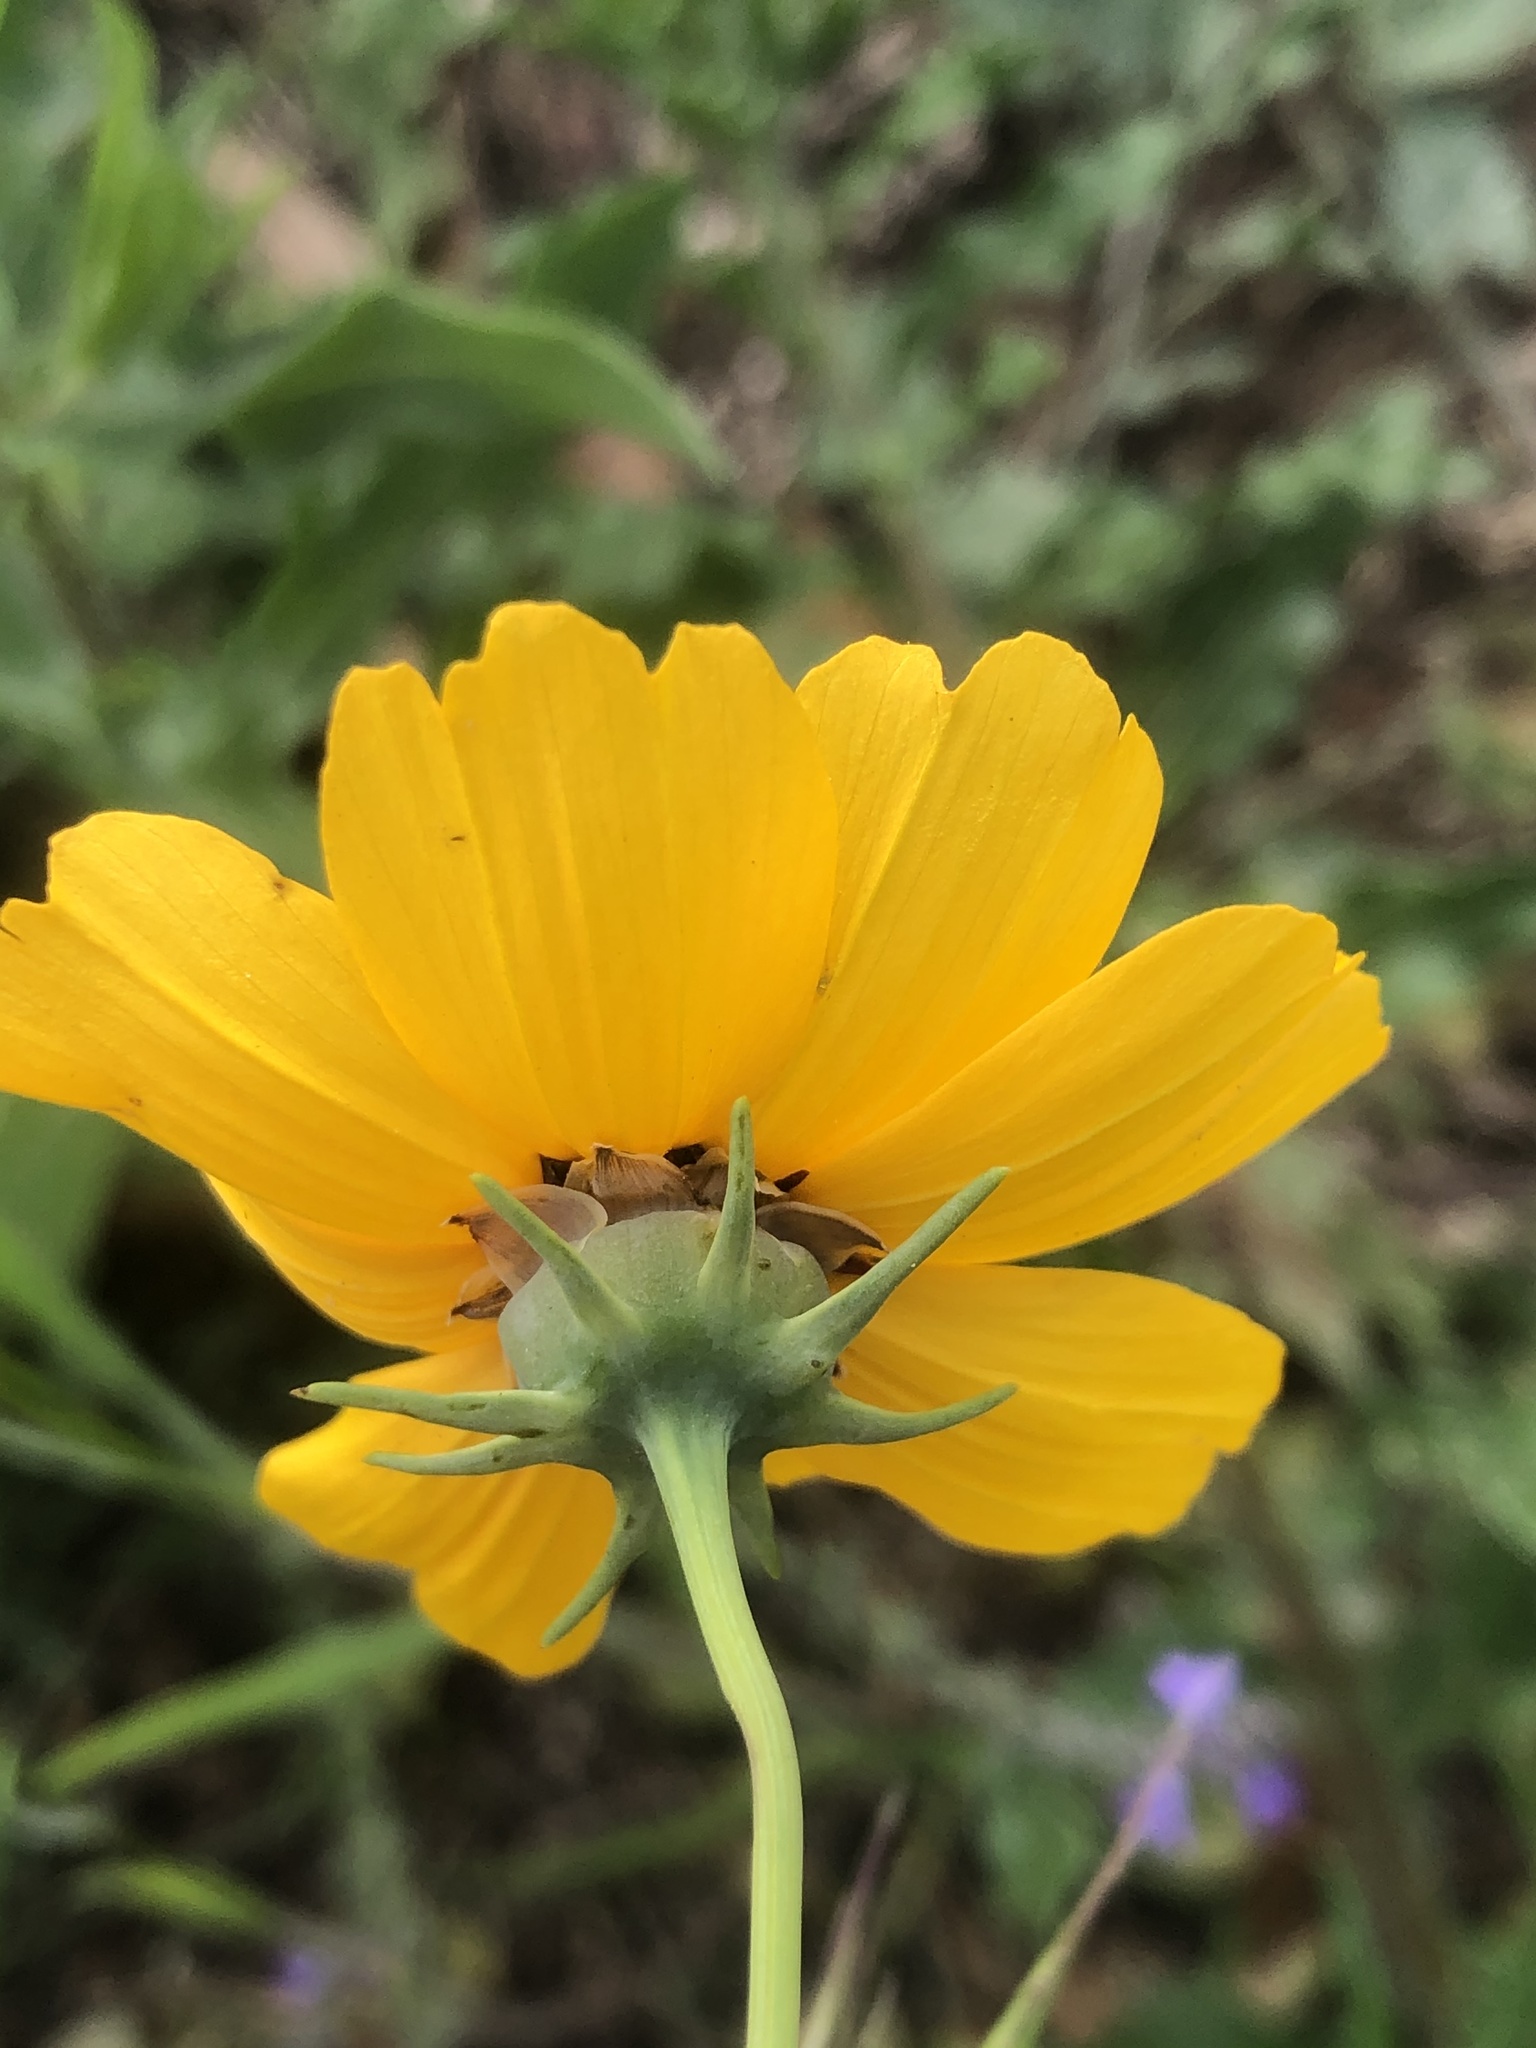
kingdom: Plantae
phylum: Tracheophyta
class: Magnoliopsida
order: Asterales
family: Asteraceae
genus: Thelesperma
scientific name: Thelesperma filifolium
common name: Stiff greenthread
